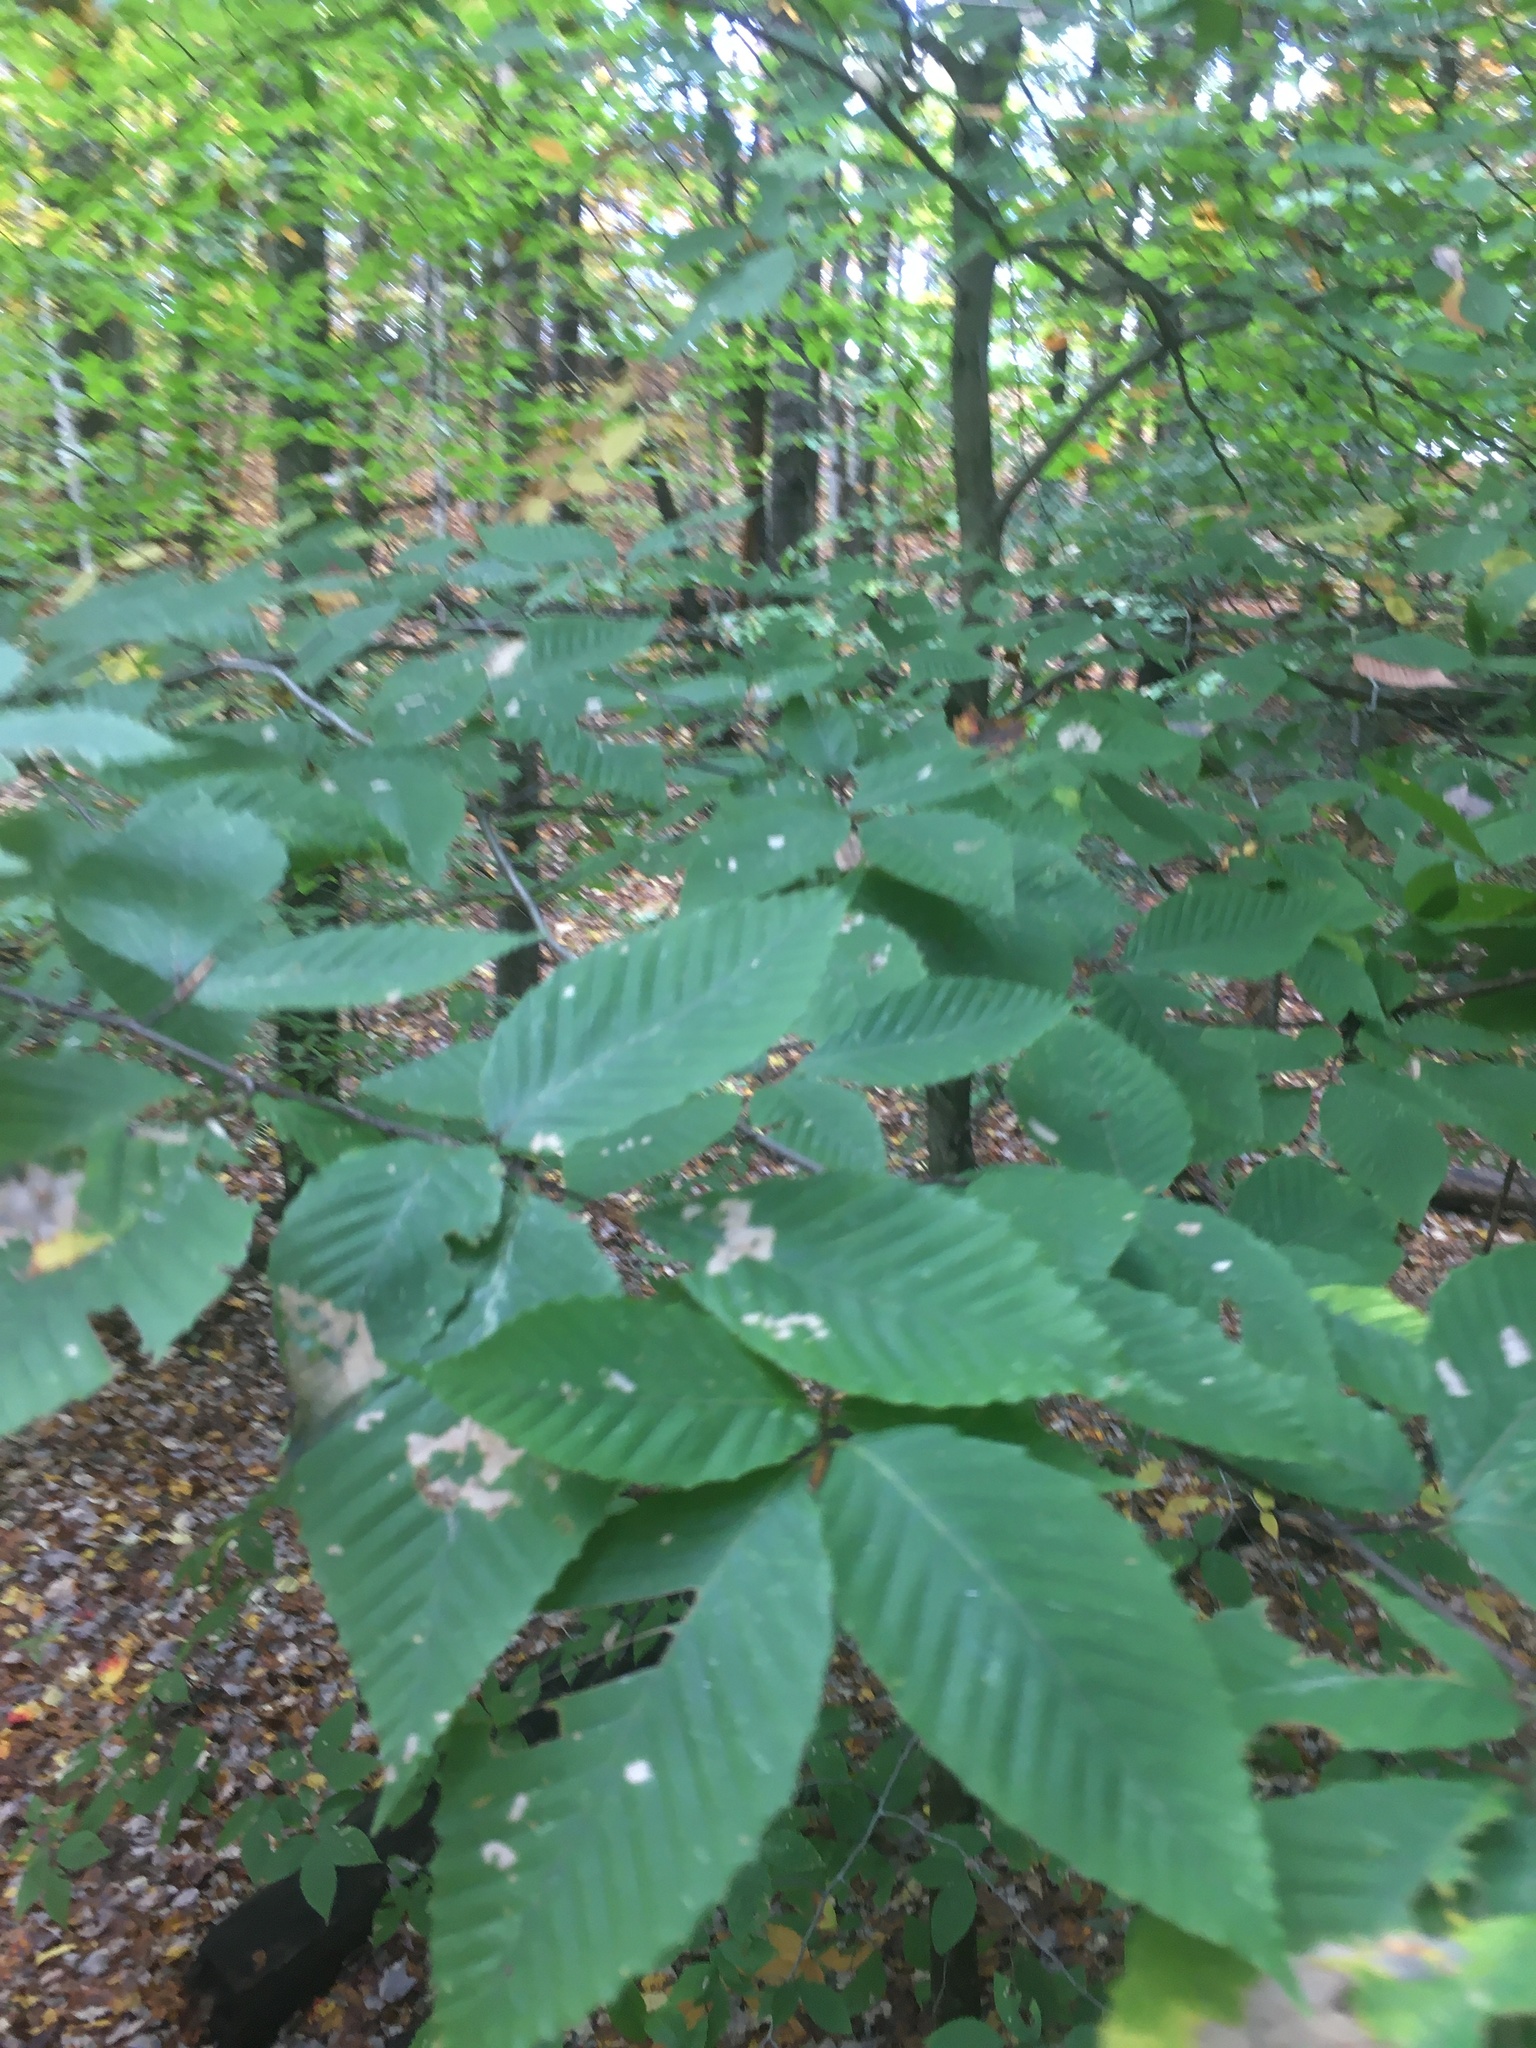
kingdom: Plantae
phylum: Tracheophyta
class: Magnoliopsida
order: Fagales
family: Fagaceae
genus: Fagus
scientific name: Fagus grandifolia
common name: American beech
